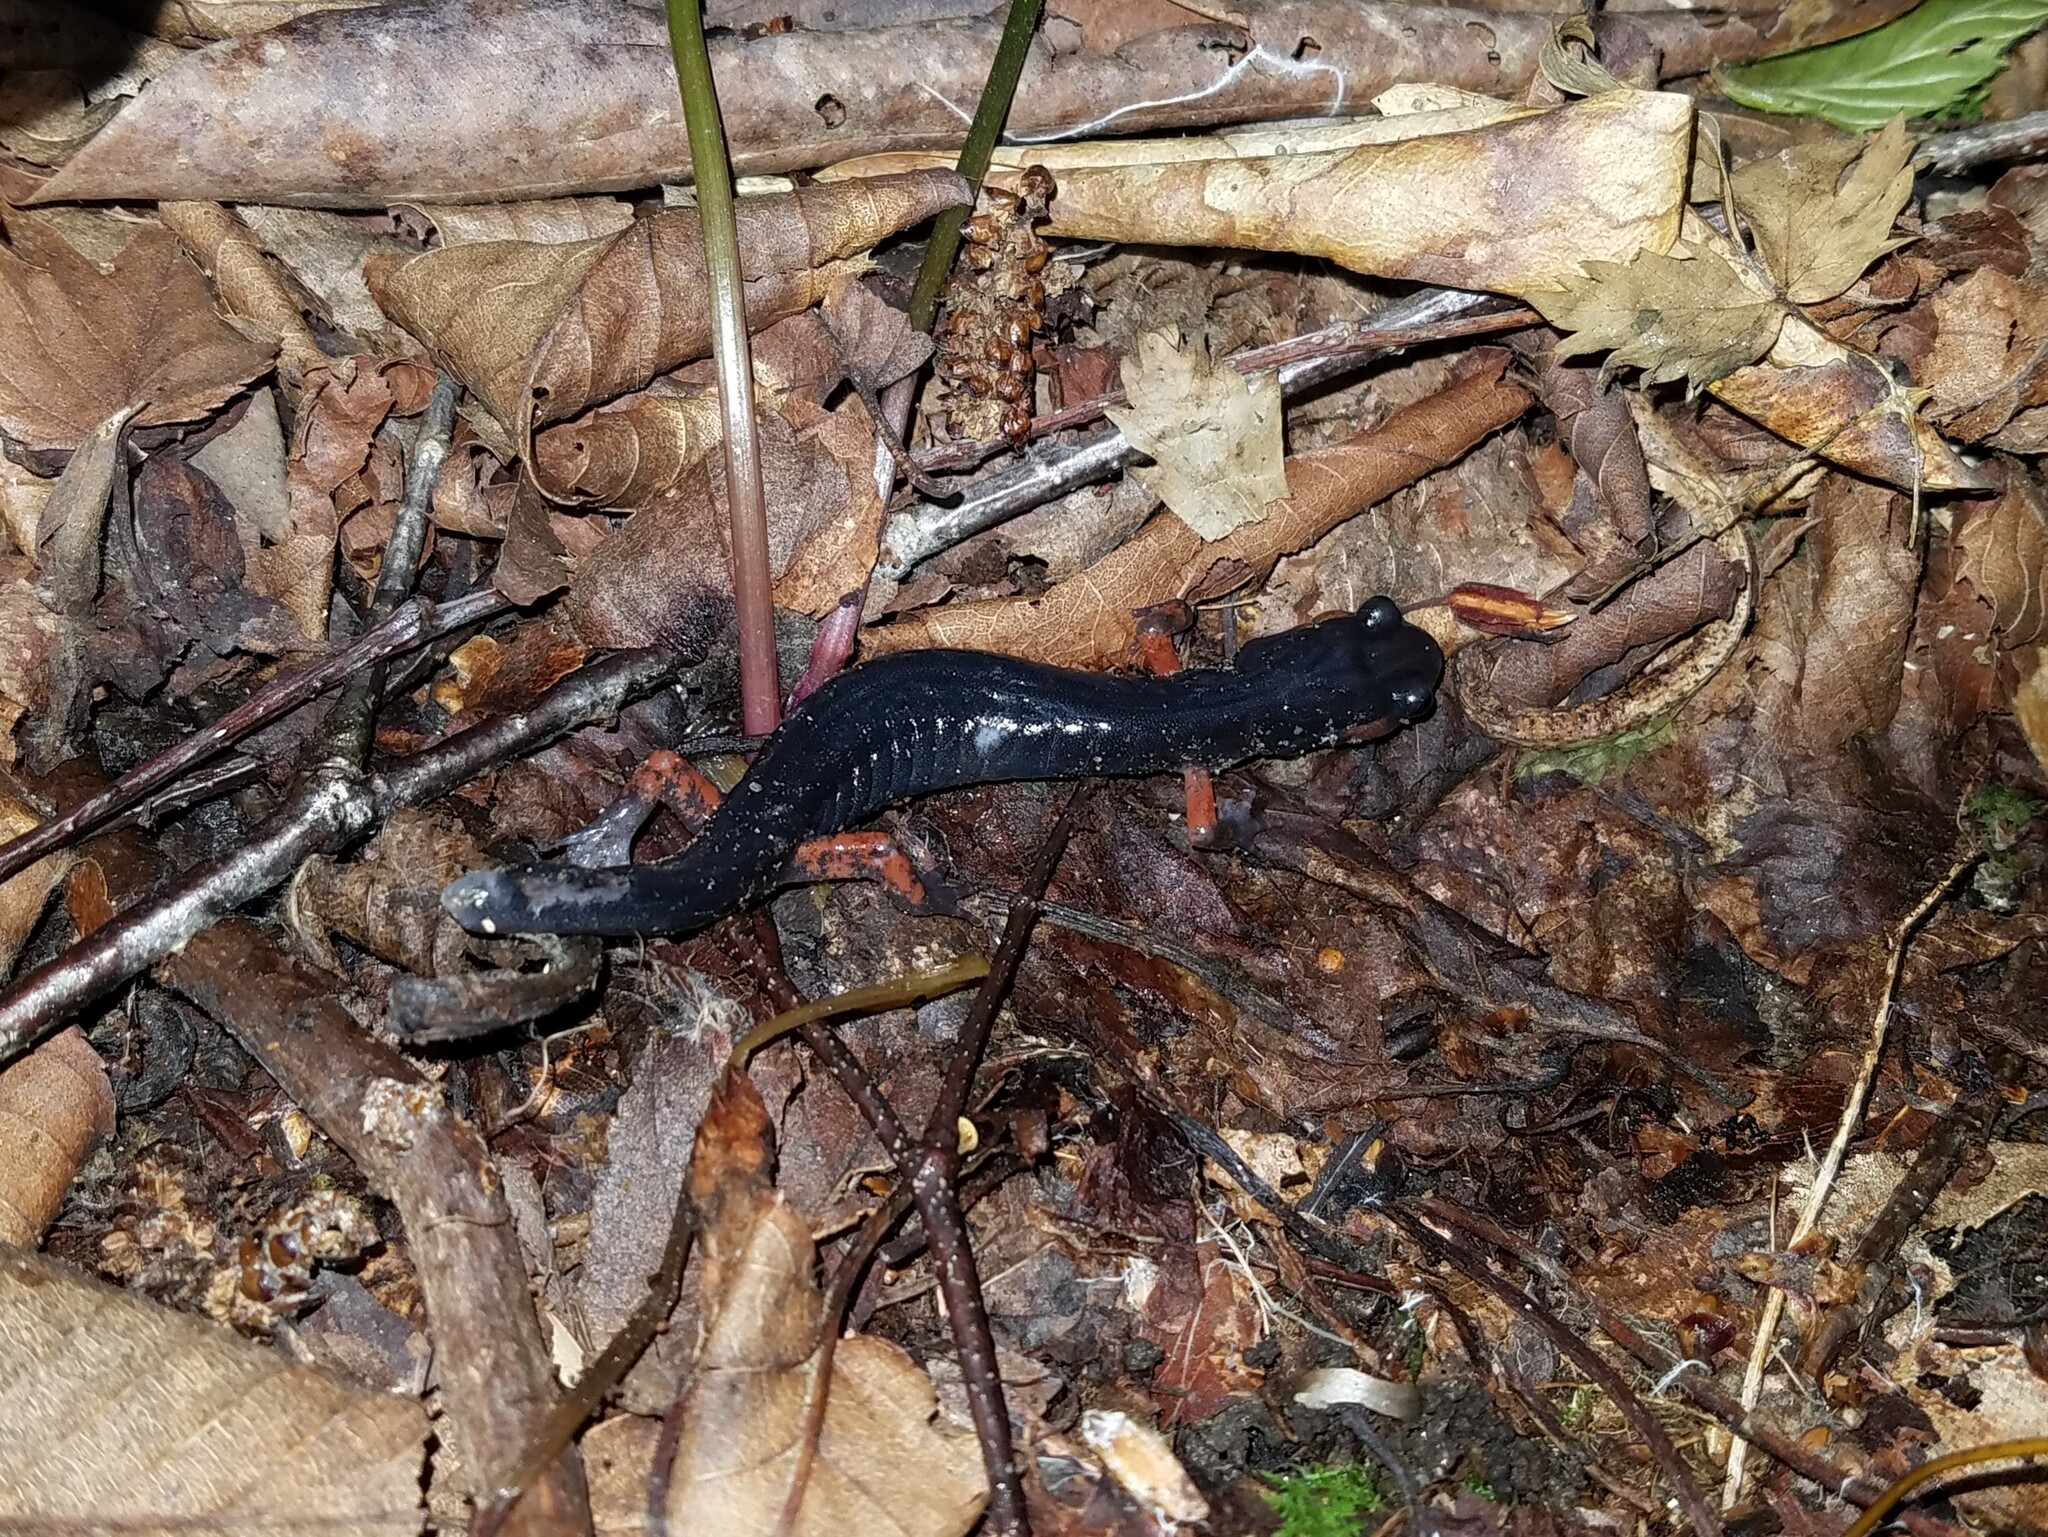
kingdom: Animalia
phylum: Chordata
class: Amphibia
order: Caudata
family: Plethodontidae
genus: Plethodon
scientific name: Plethodon shermani
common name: Red-legged salamander
